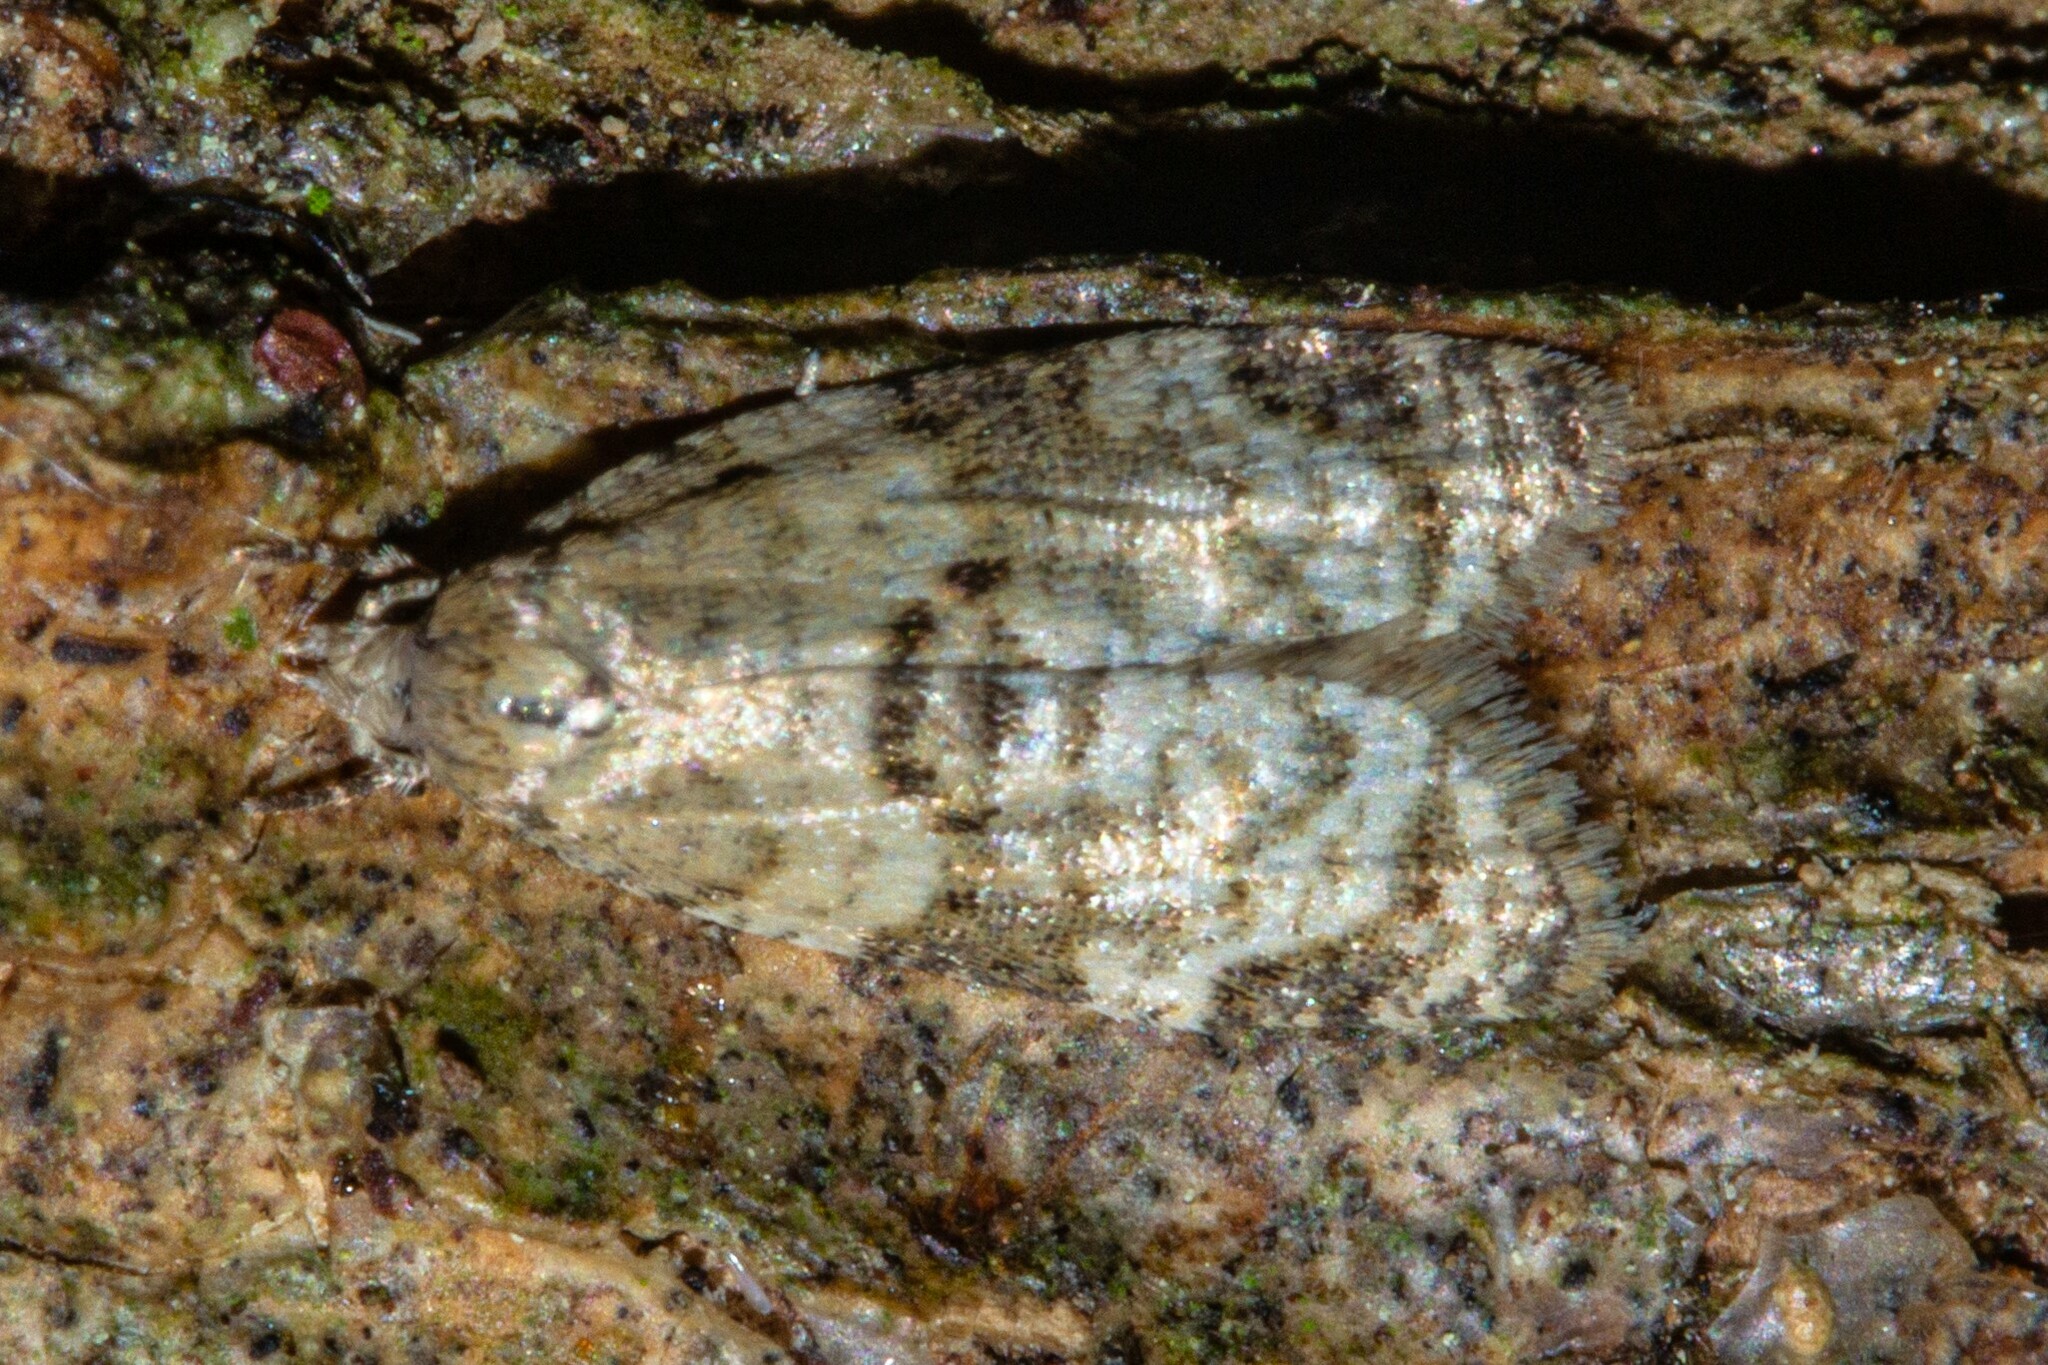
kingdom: Animalia
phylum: Arthropoda
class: Insecta
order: Lepidoptera
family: Tortricidae
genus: Dipterina
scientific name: Dipterina imbriferana
